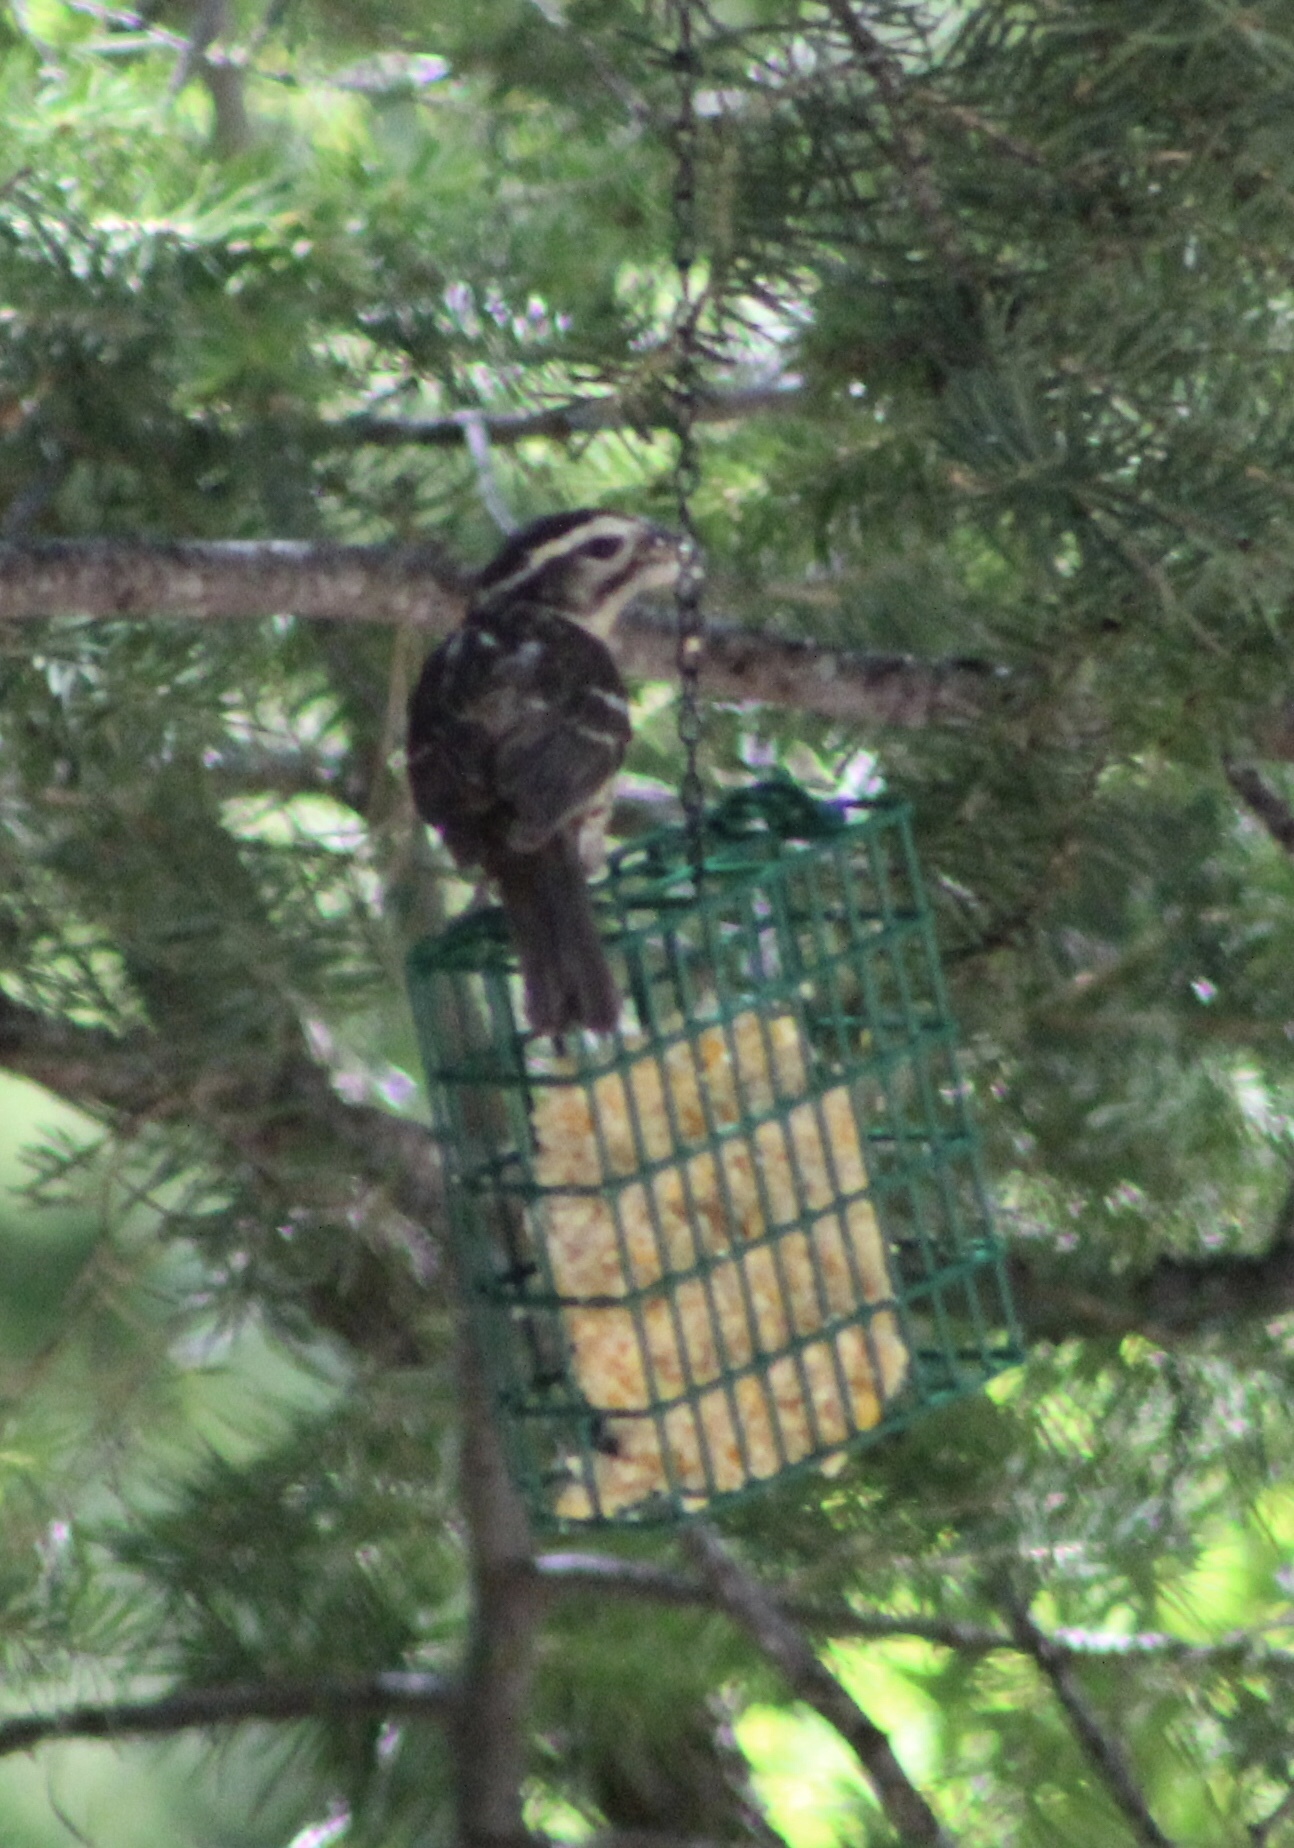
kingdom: Animalia
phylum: Chordata
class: Aves
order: Passeriformes
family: Cardinalidae
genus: Pheucticus
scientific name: Pheucticus melanocephalus
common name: Black-headed grosbeak
